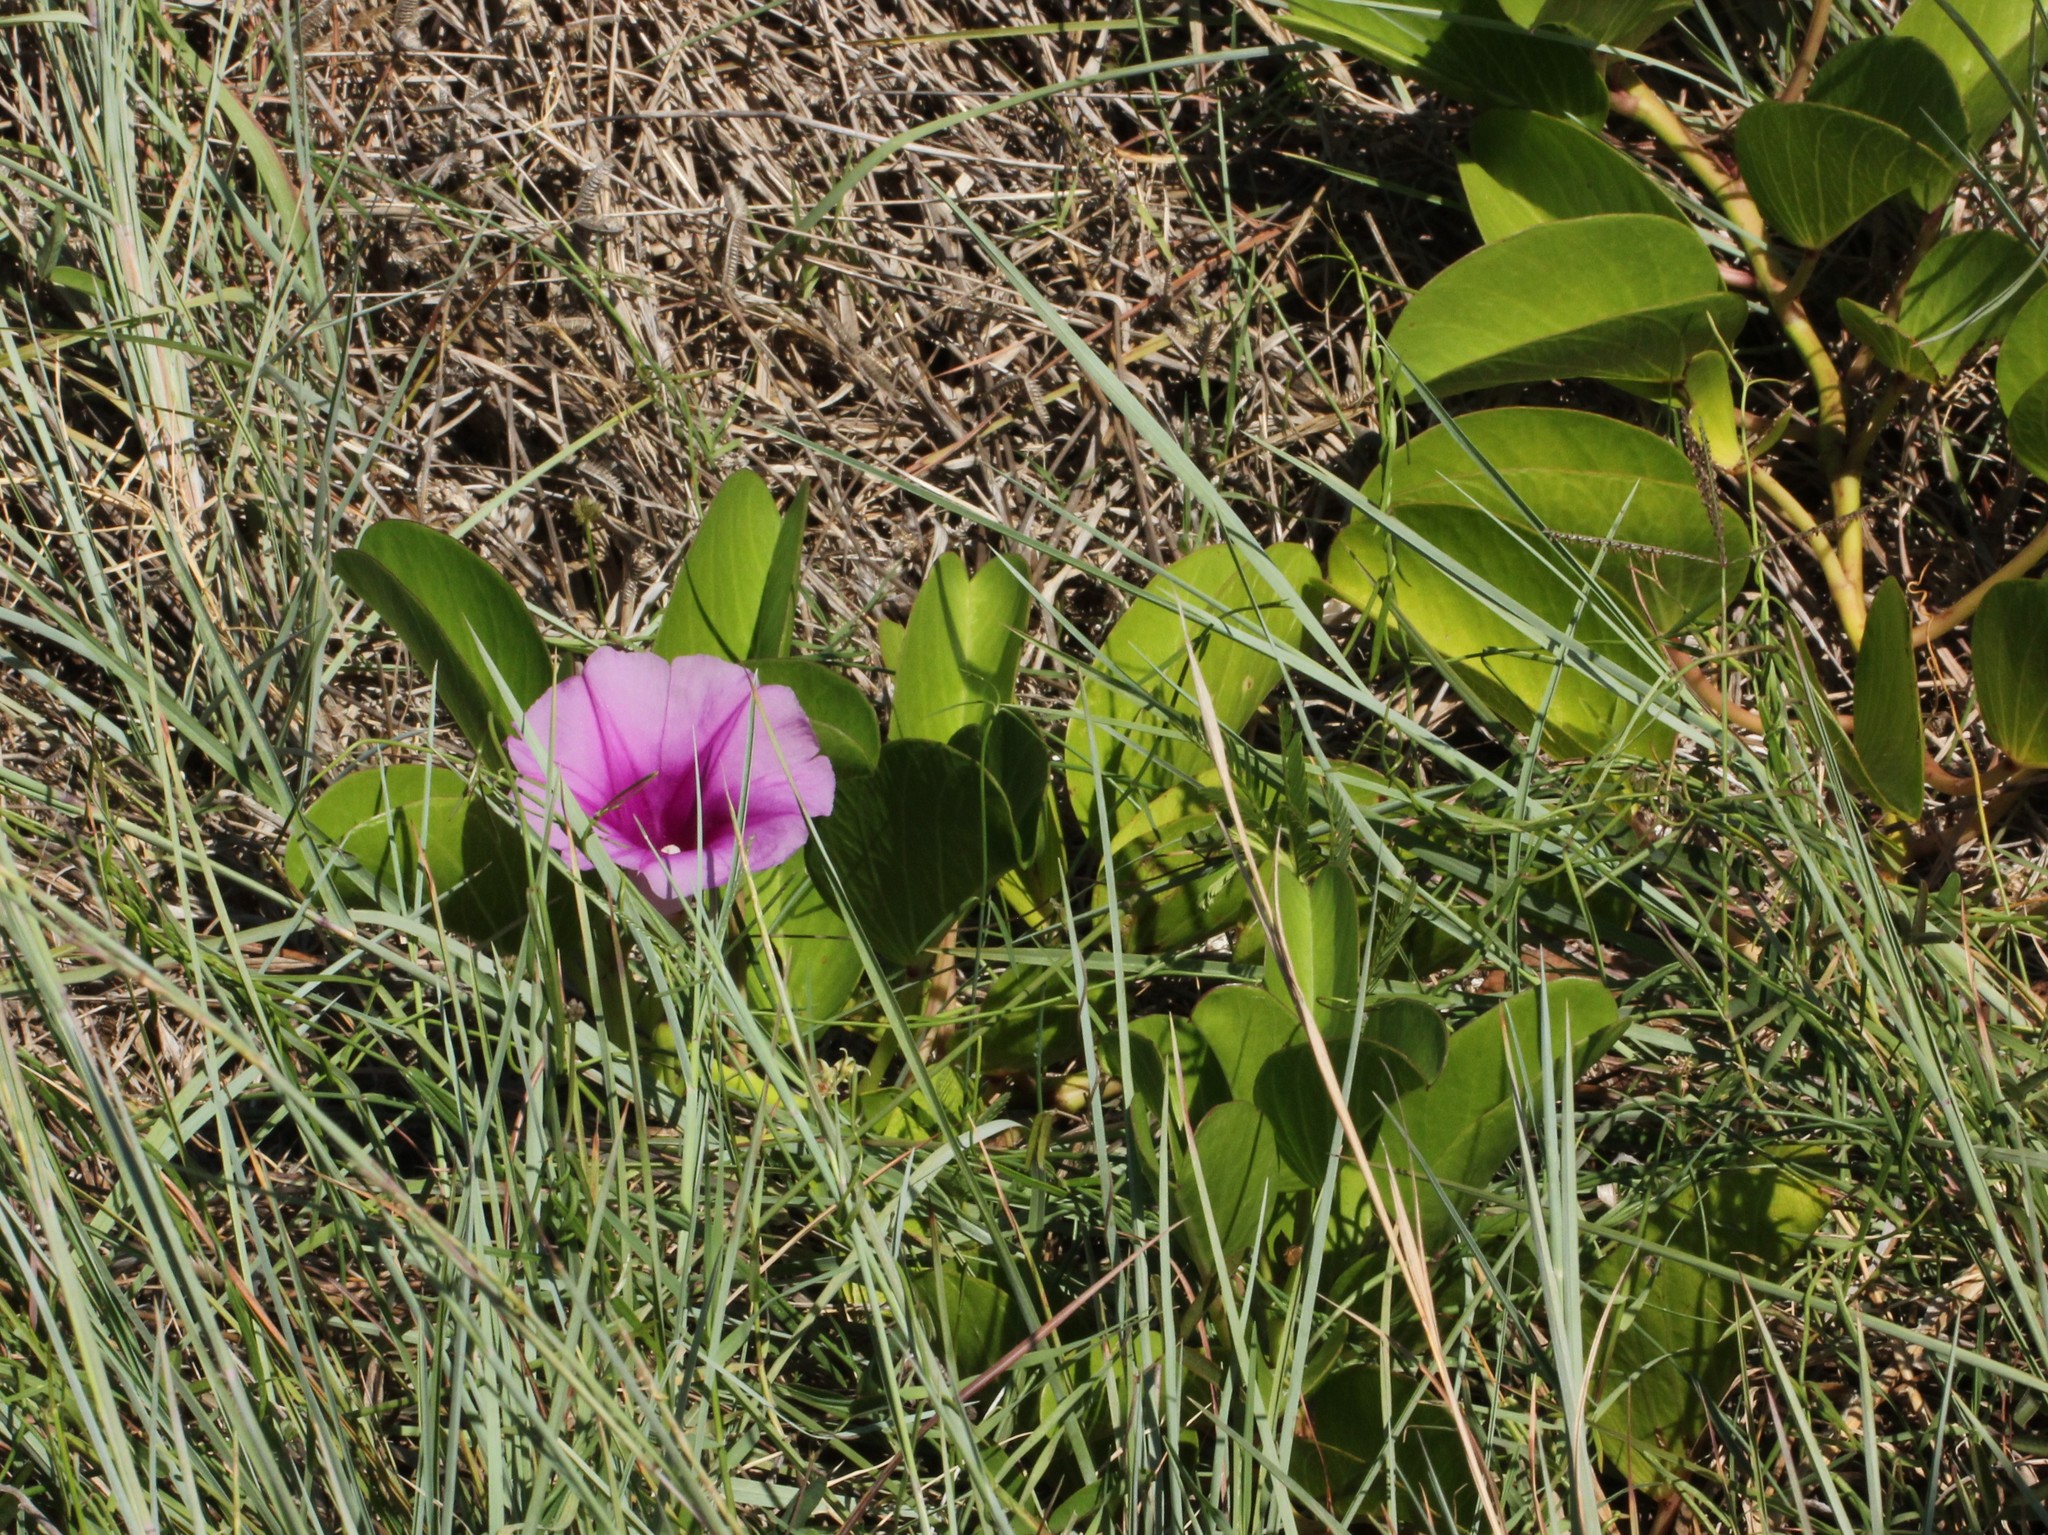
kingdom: Plantae
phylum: Tracheophyta
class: Magnoliopsida
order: Solanales
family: Convolvulaceae
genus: Ipomoea
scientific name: Ipomoea pes-caprae
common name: Beach morning glory
